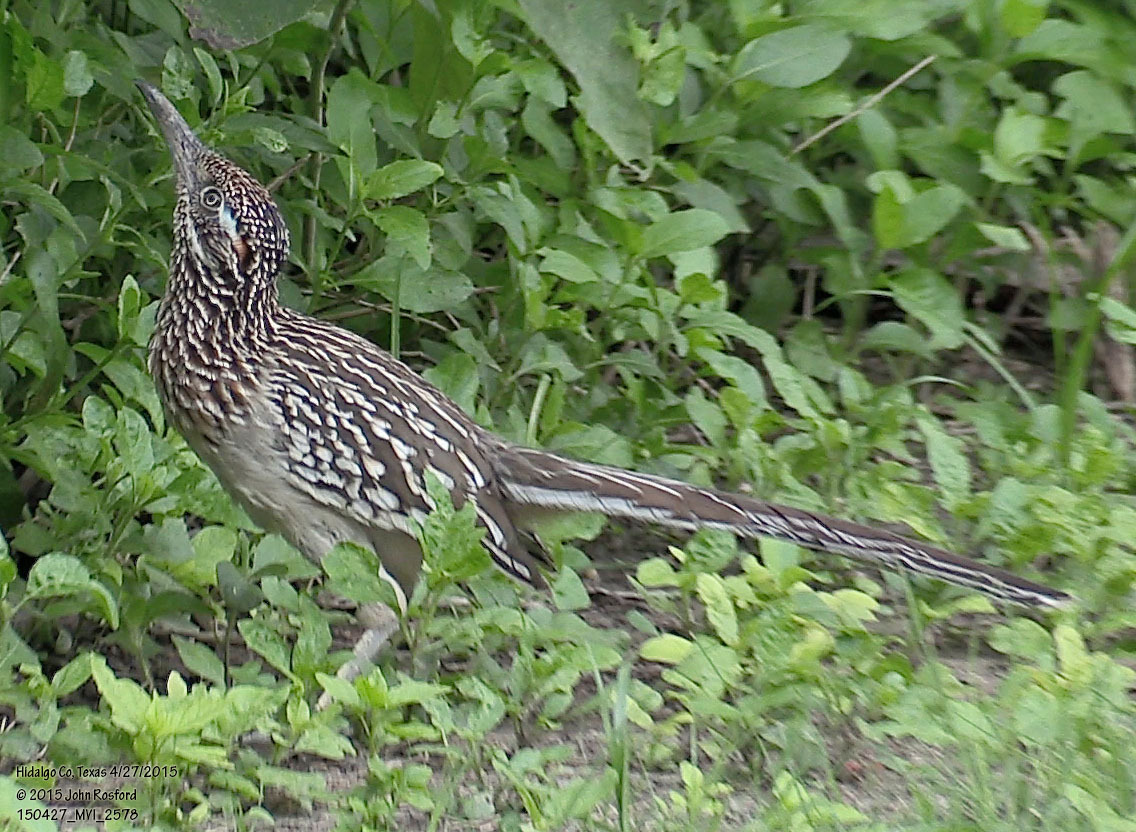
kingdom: Animalia
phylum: Chordata
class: Aves
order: Cuculiformes
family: Cuculidae
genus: Geococcyx
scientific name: Geococcyx californianus
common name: Greater roadrunner
